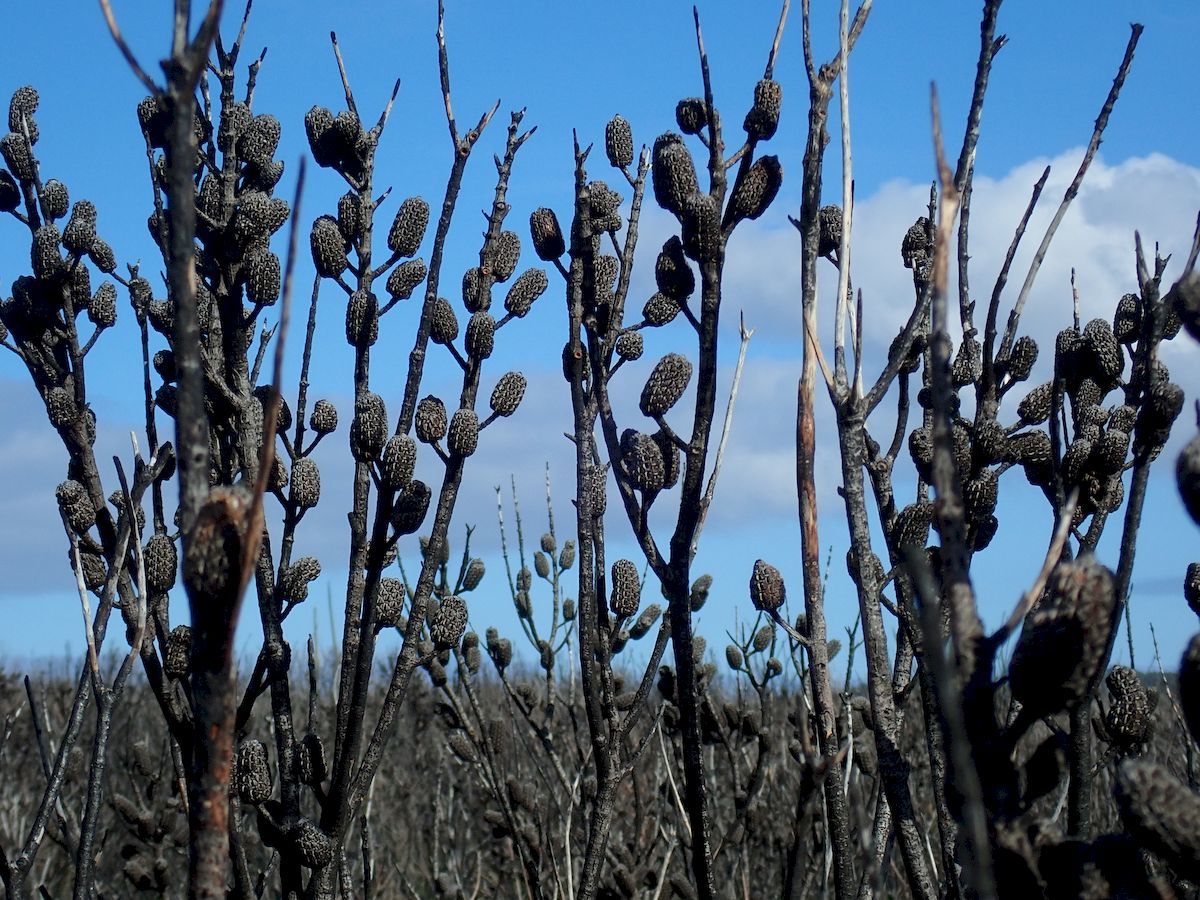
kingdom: Plantae
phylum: Tracheophyta
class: Magnoliopsida
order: Fagales
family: Casuarinaceae
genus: Allocasuarina
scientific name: Allocasuarina distyla
